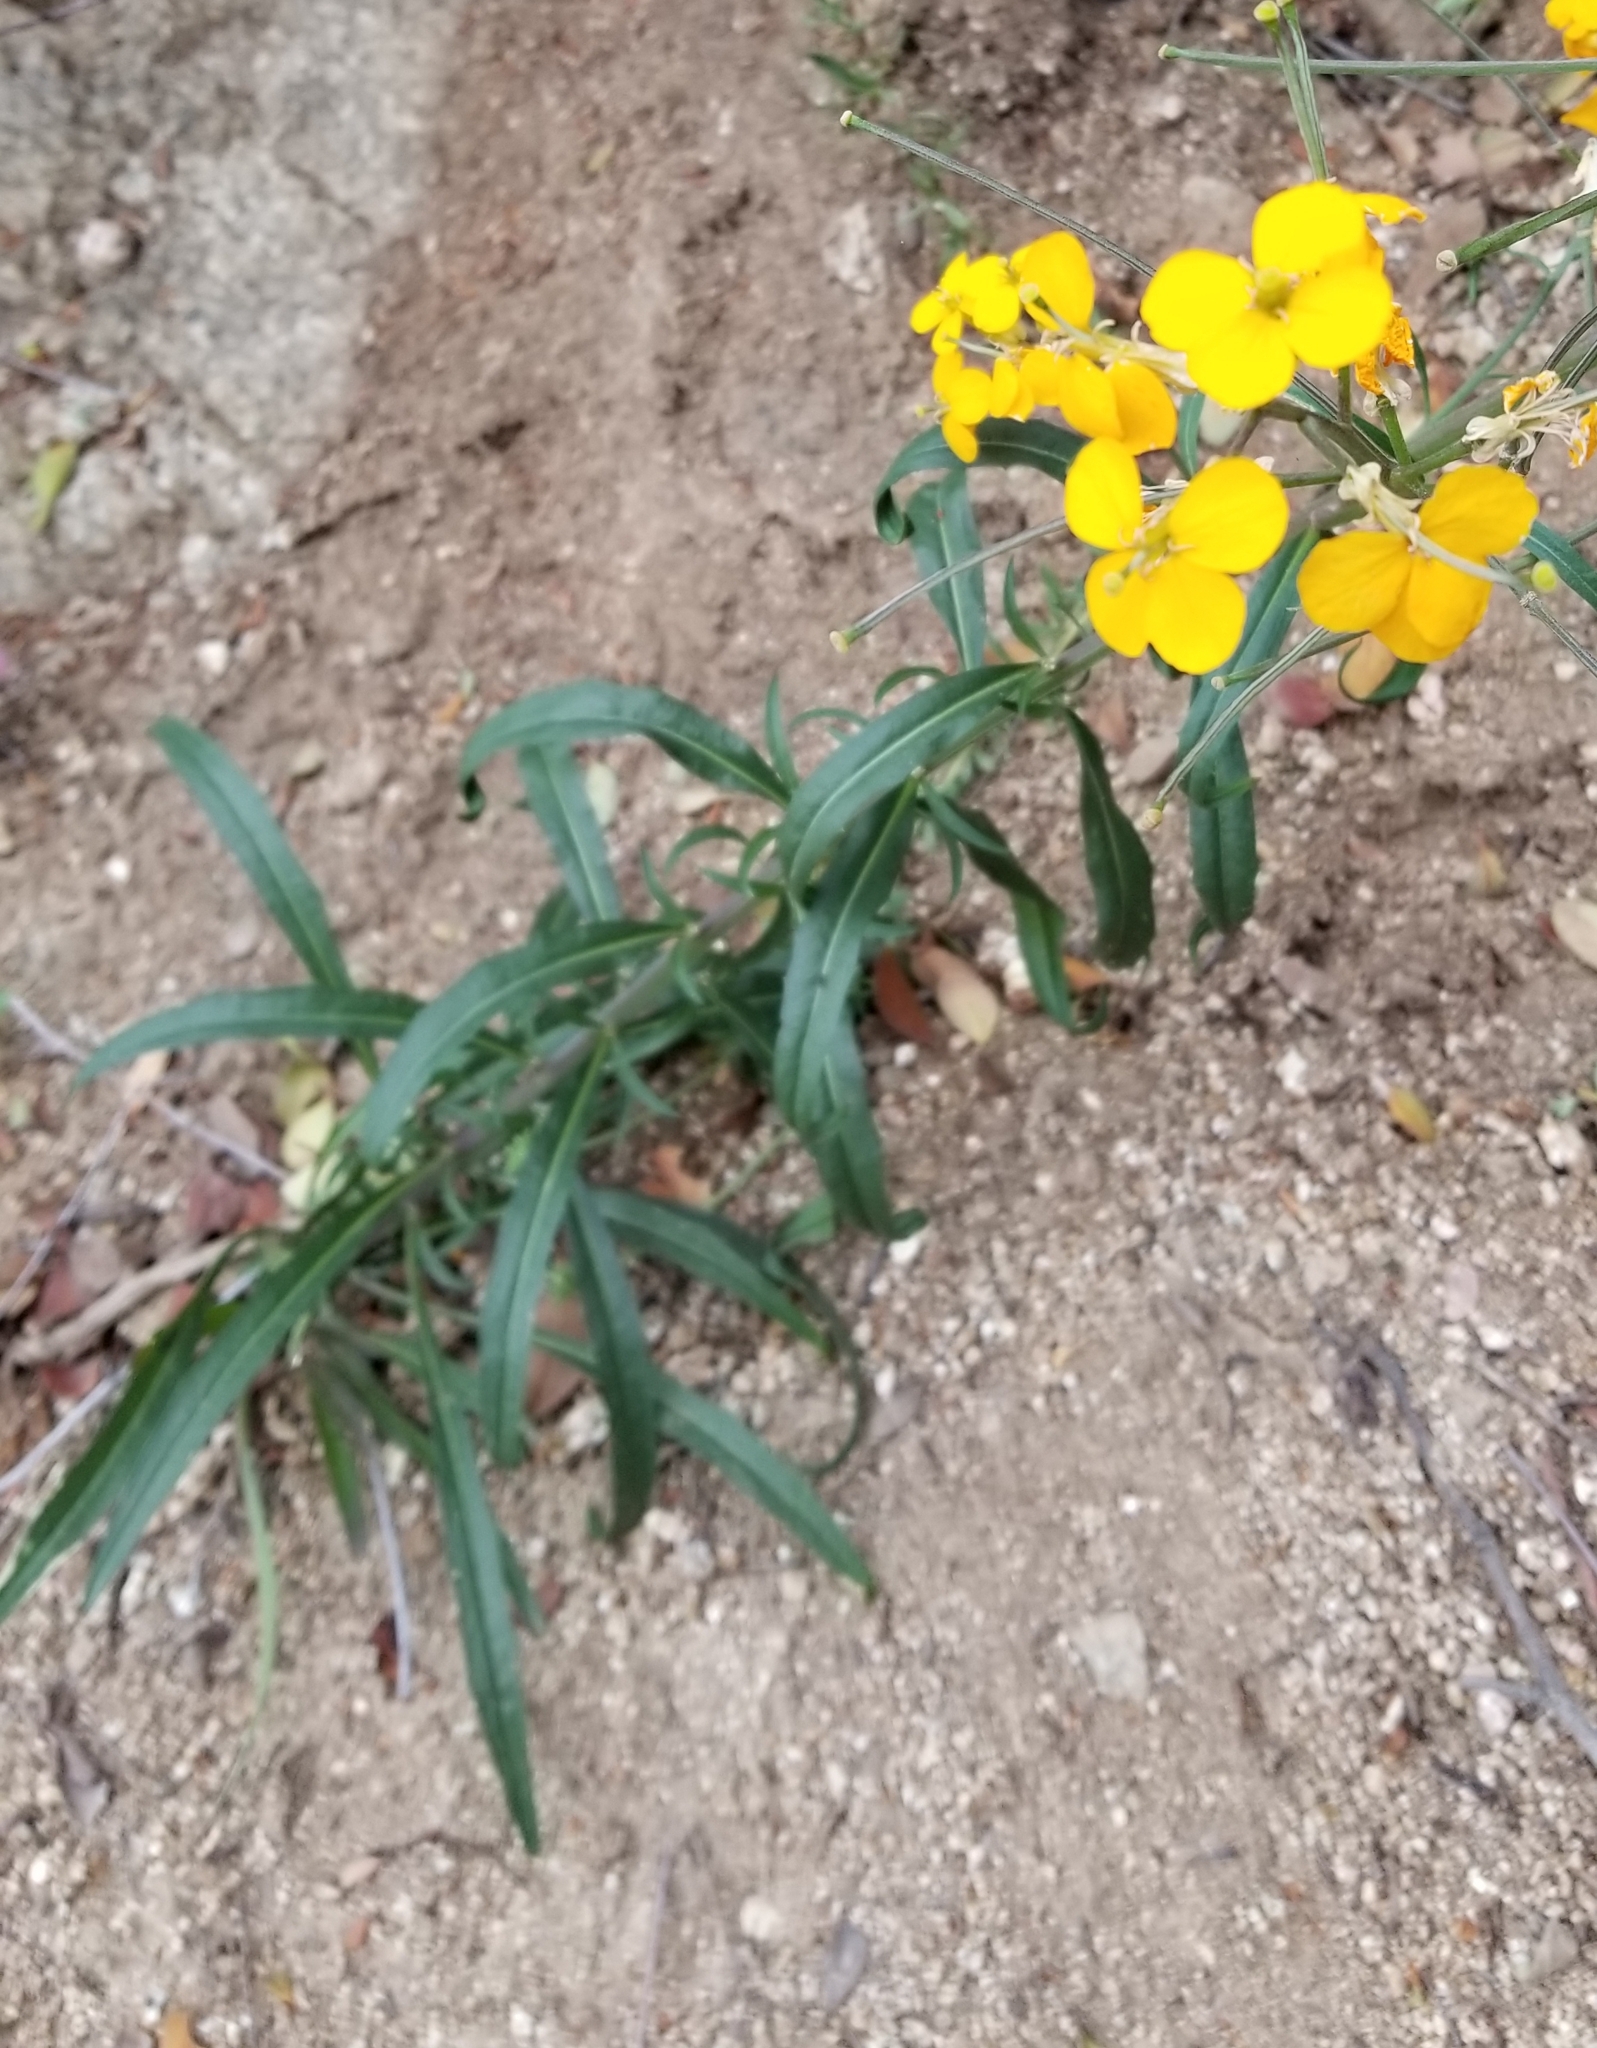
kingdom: Plantae
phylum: Tracheophyta
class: Magnoliopsida
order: Brassicales
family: Brassicaceae
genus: Erysimum
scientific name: Erysimum capitatum
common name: Western wallflower
